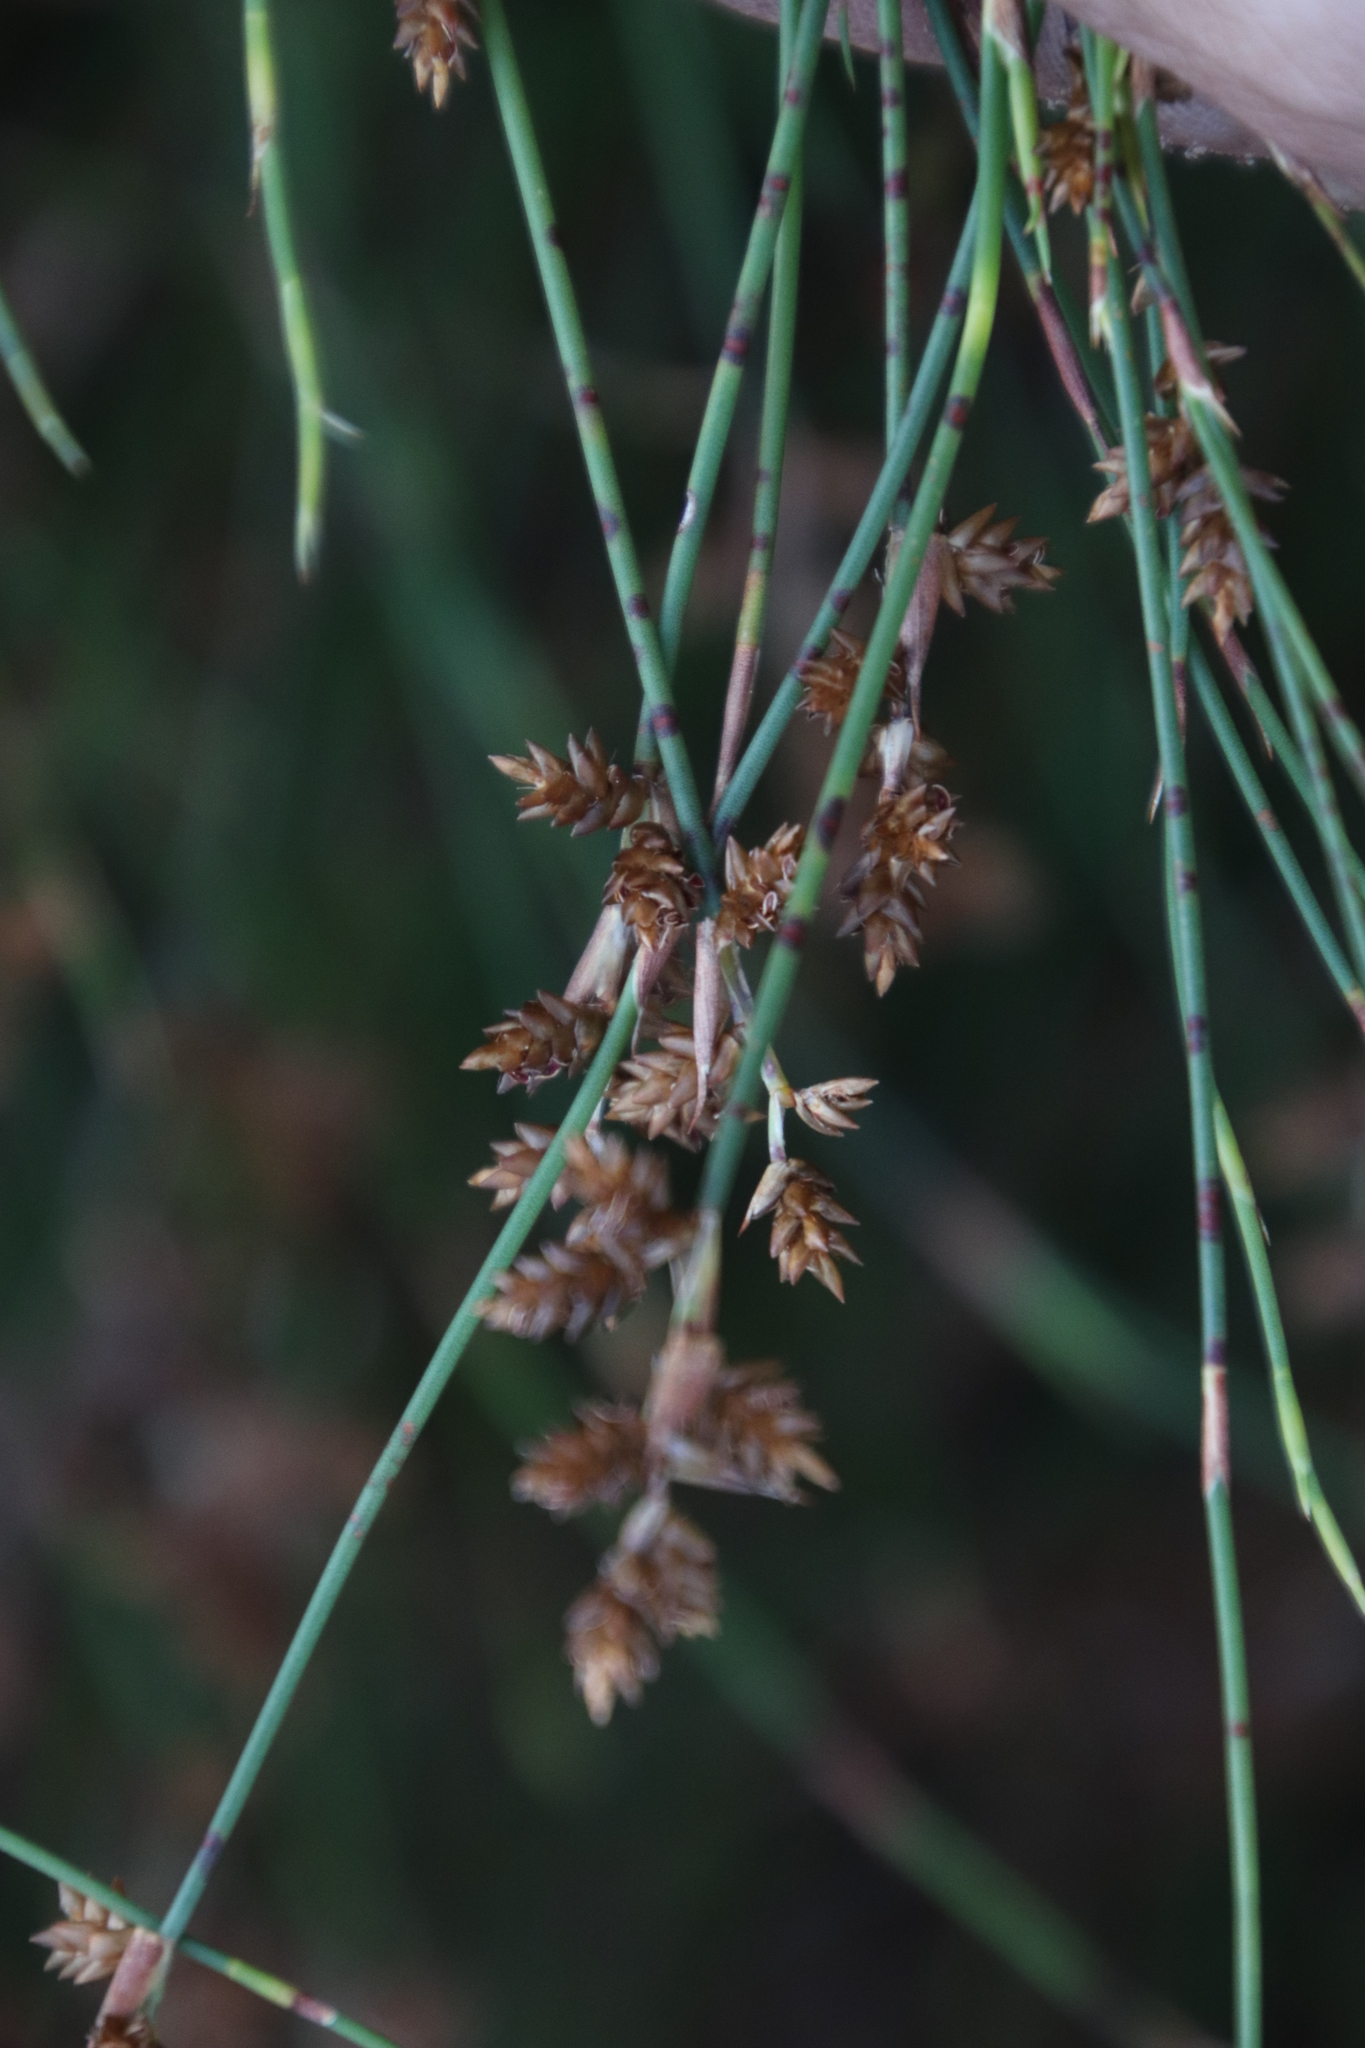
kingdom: Plantae
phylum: Tracheophyta
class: Liliopsida
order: Poales
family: Restionaceae
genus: Mastersiella
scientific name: Mastersiella digitata
